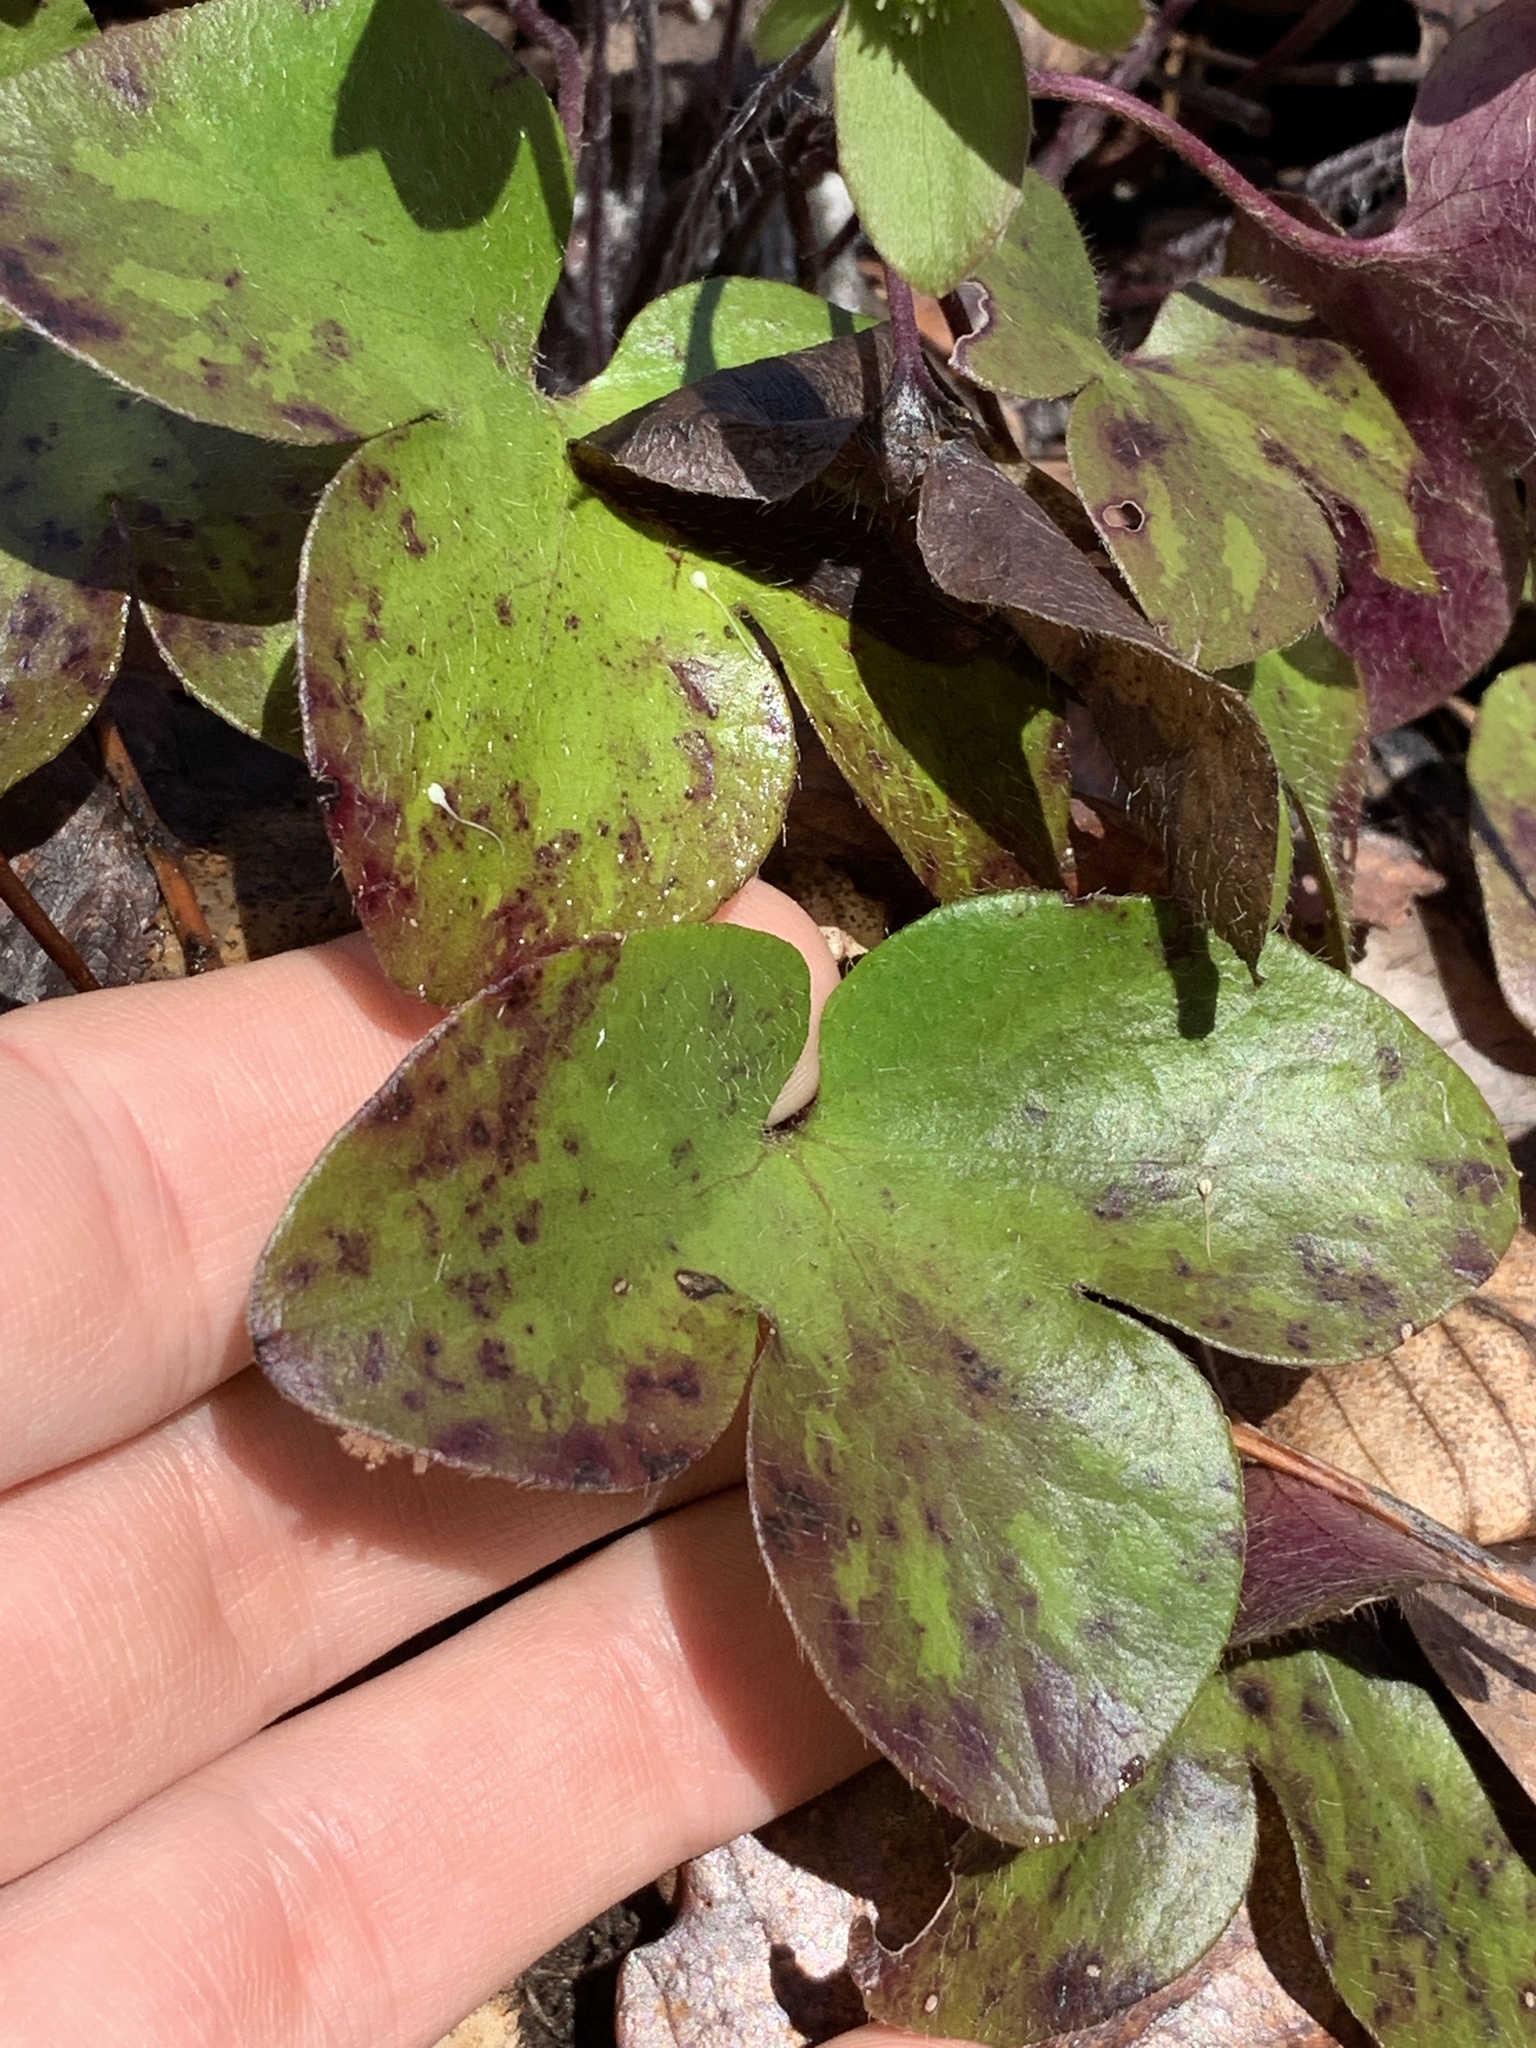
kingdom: Plantae
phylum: Tracheophyta
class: Magnoliopsida
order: Ranunculales
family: Ranunculaceae
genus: Hepatica
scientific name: Hepatica americana
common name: American hepatica
